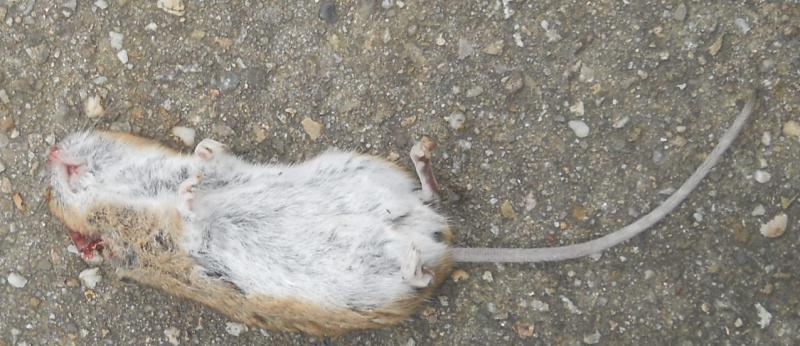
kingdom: Animalia
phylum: Chordata
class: Mammalia
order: Rodentia
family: Muridae
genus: Apodemus
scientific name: Apodemus sylvaticus
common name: Wood mouse
